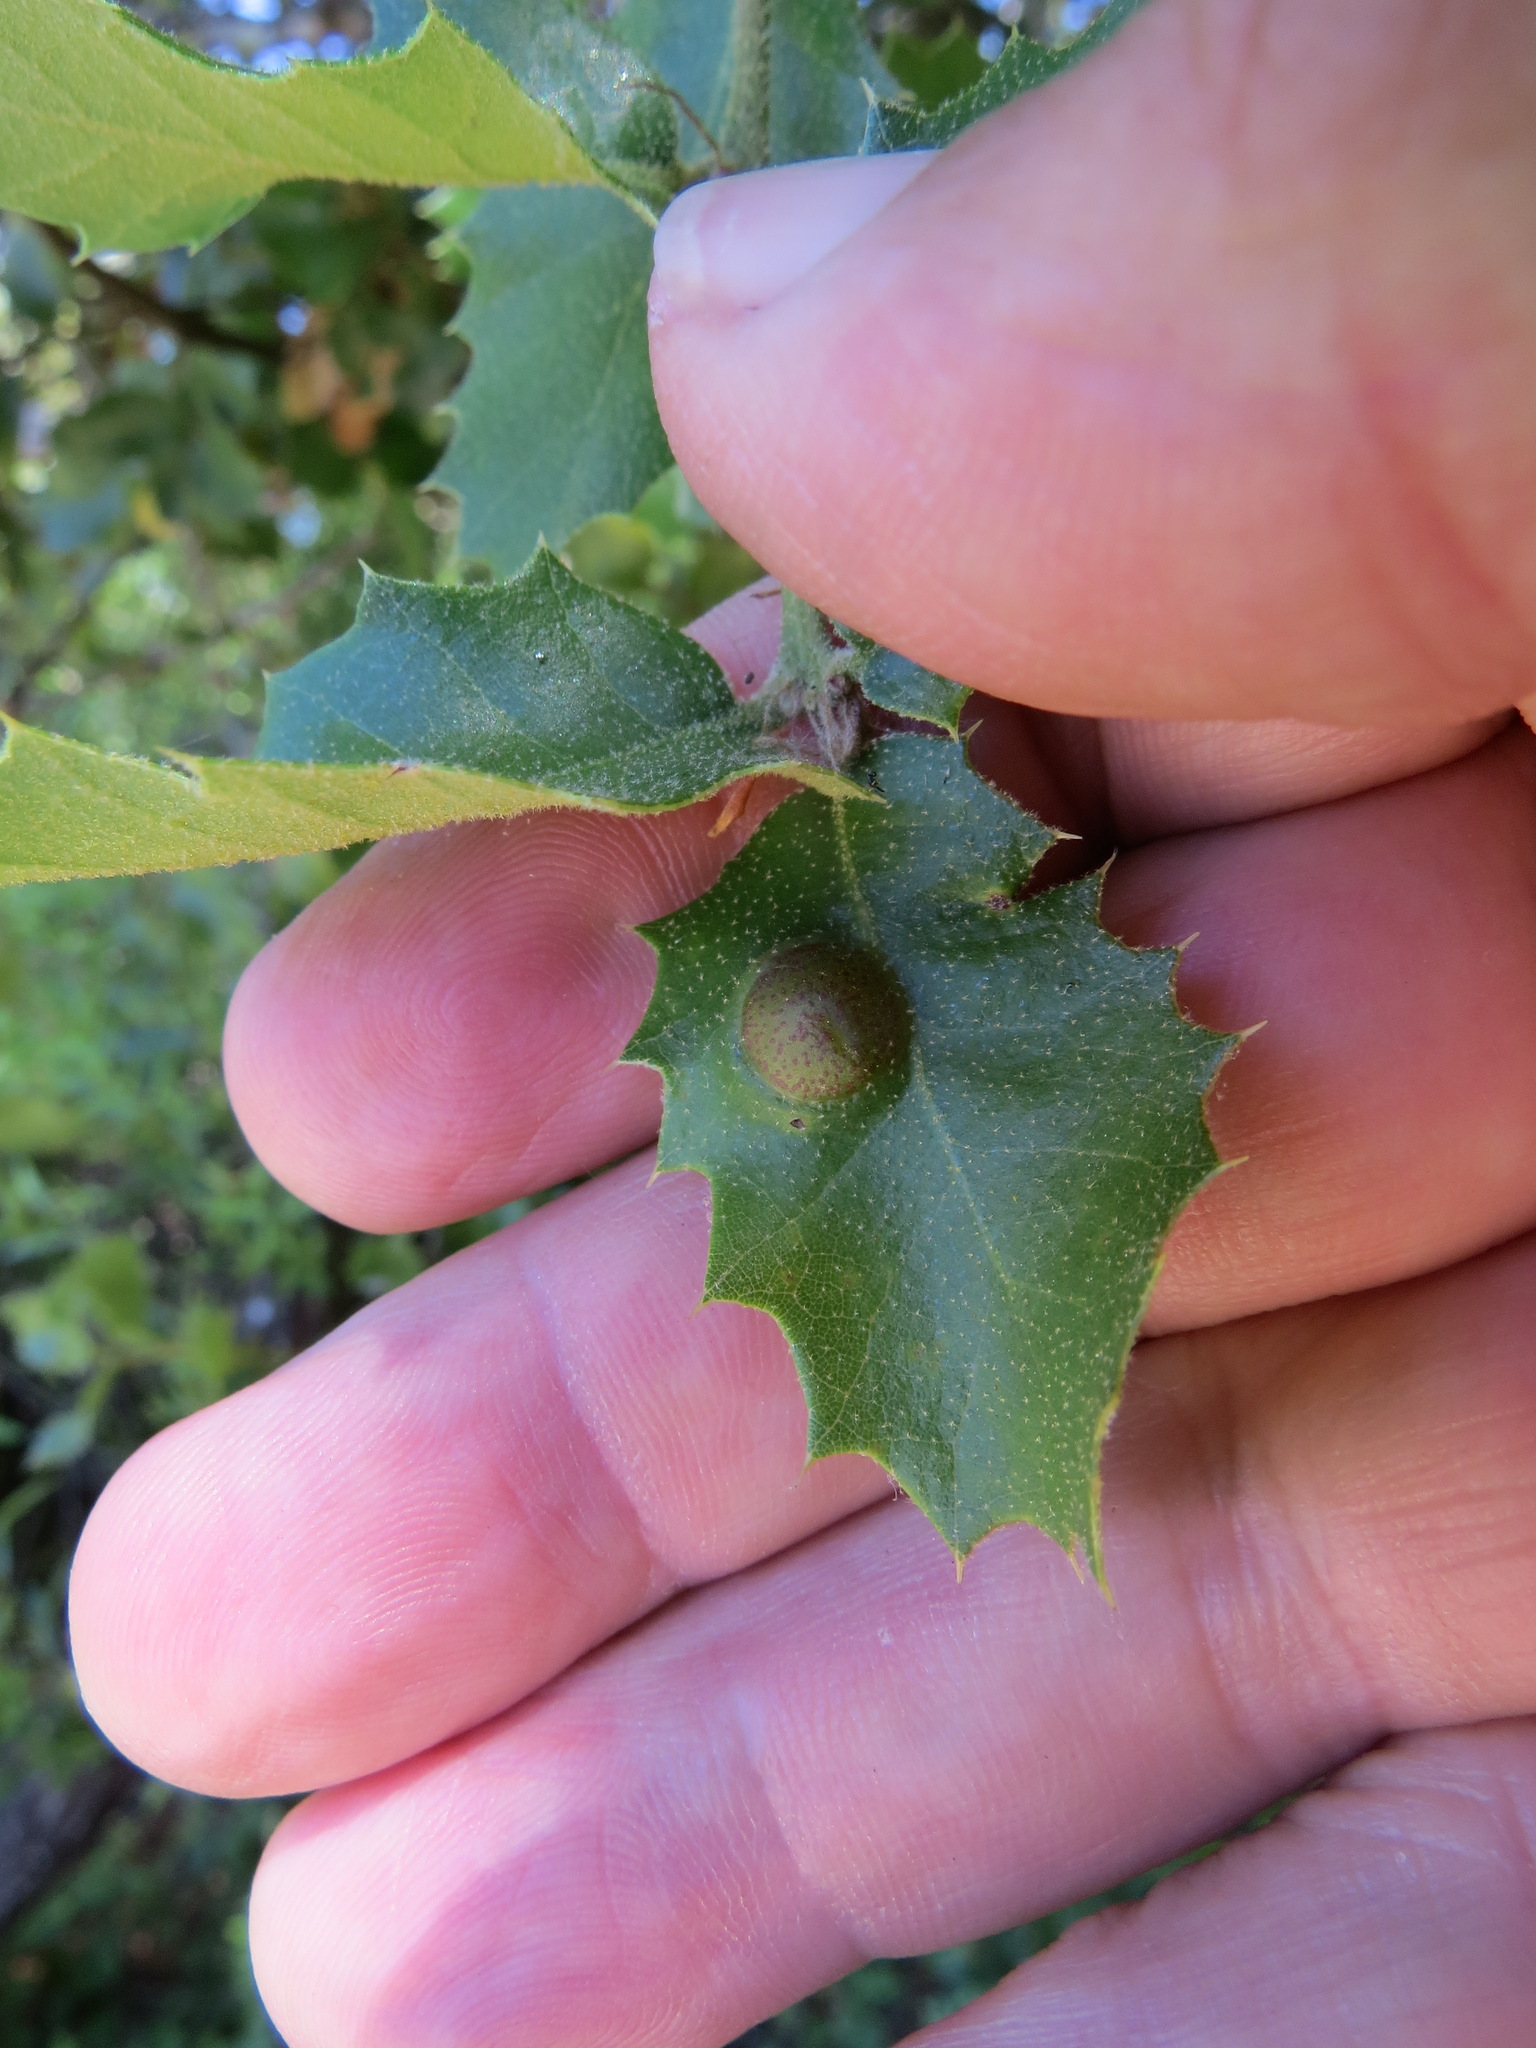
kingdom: Animalia
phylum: Arthropoda
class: Insecta
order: Hymenoptera
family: Cynipidae
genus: Heteroecus
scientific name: Heteroecus
